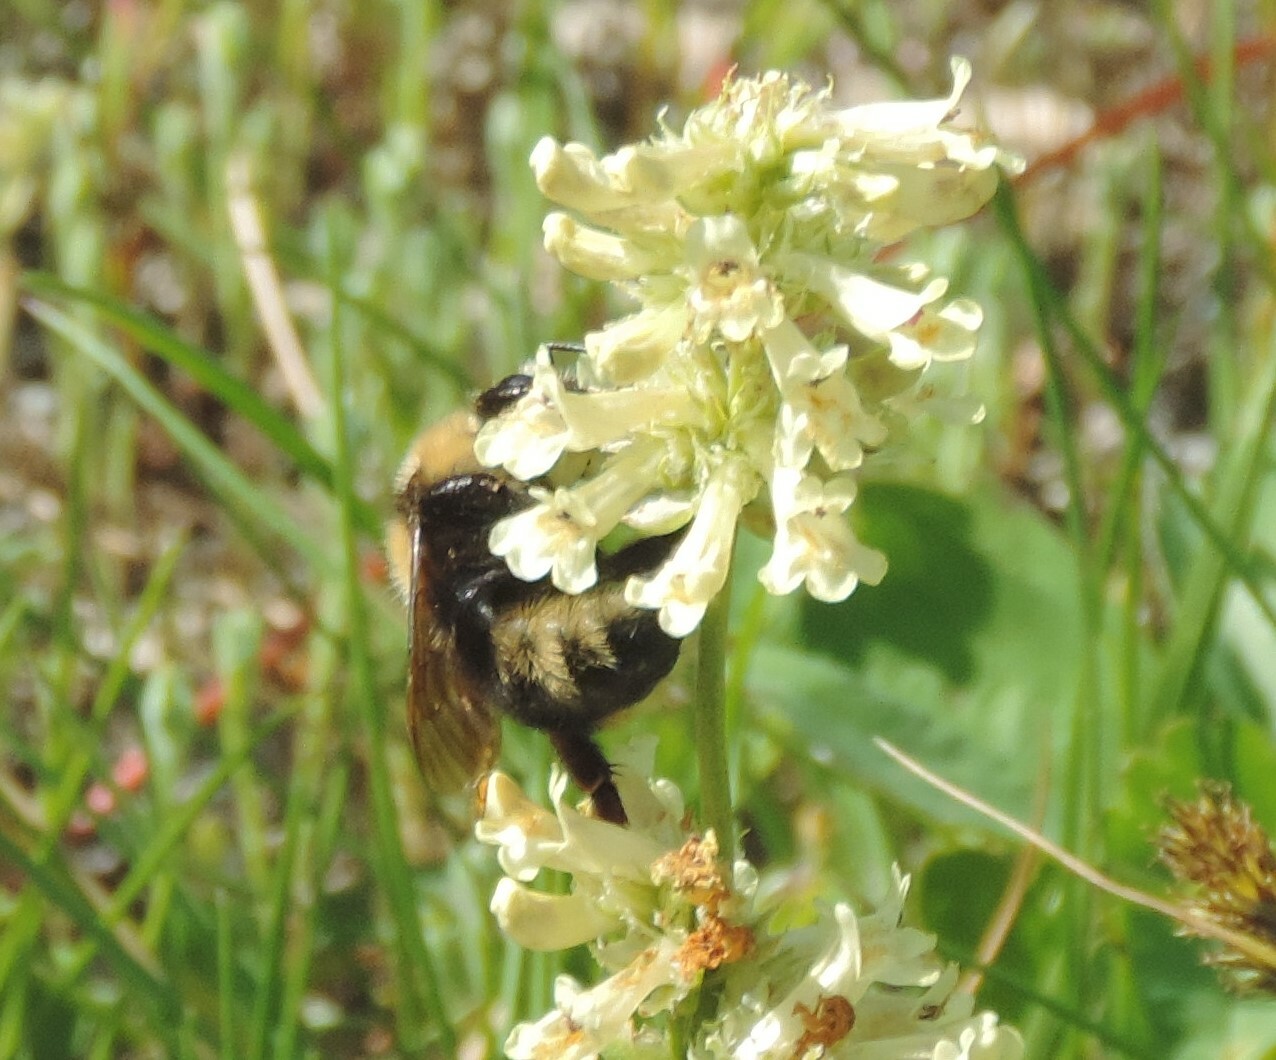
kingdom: Animalia
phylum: Arthropoda
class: Insecta
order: Hymenoptera
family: Apidae
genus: Bombus
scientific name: Bombus insularis
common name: Indiscriminate cuckoo bumble bee
